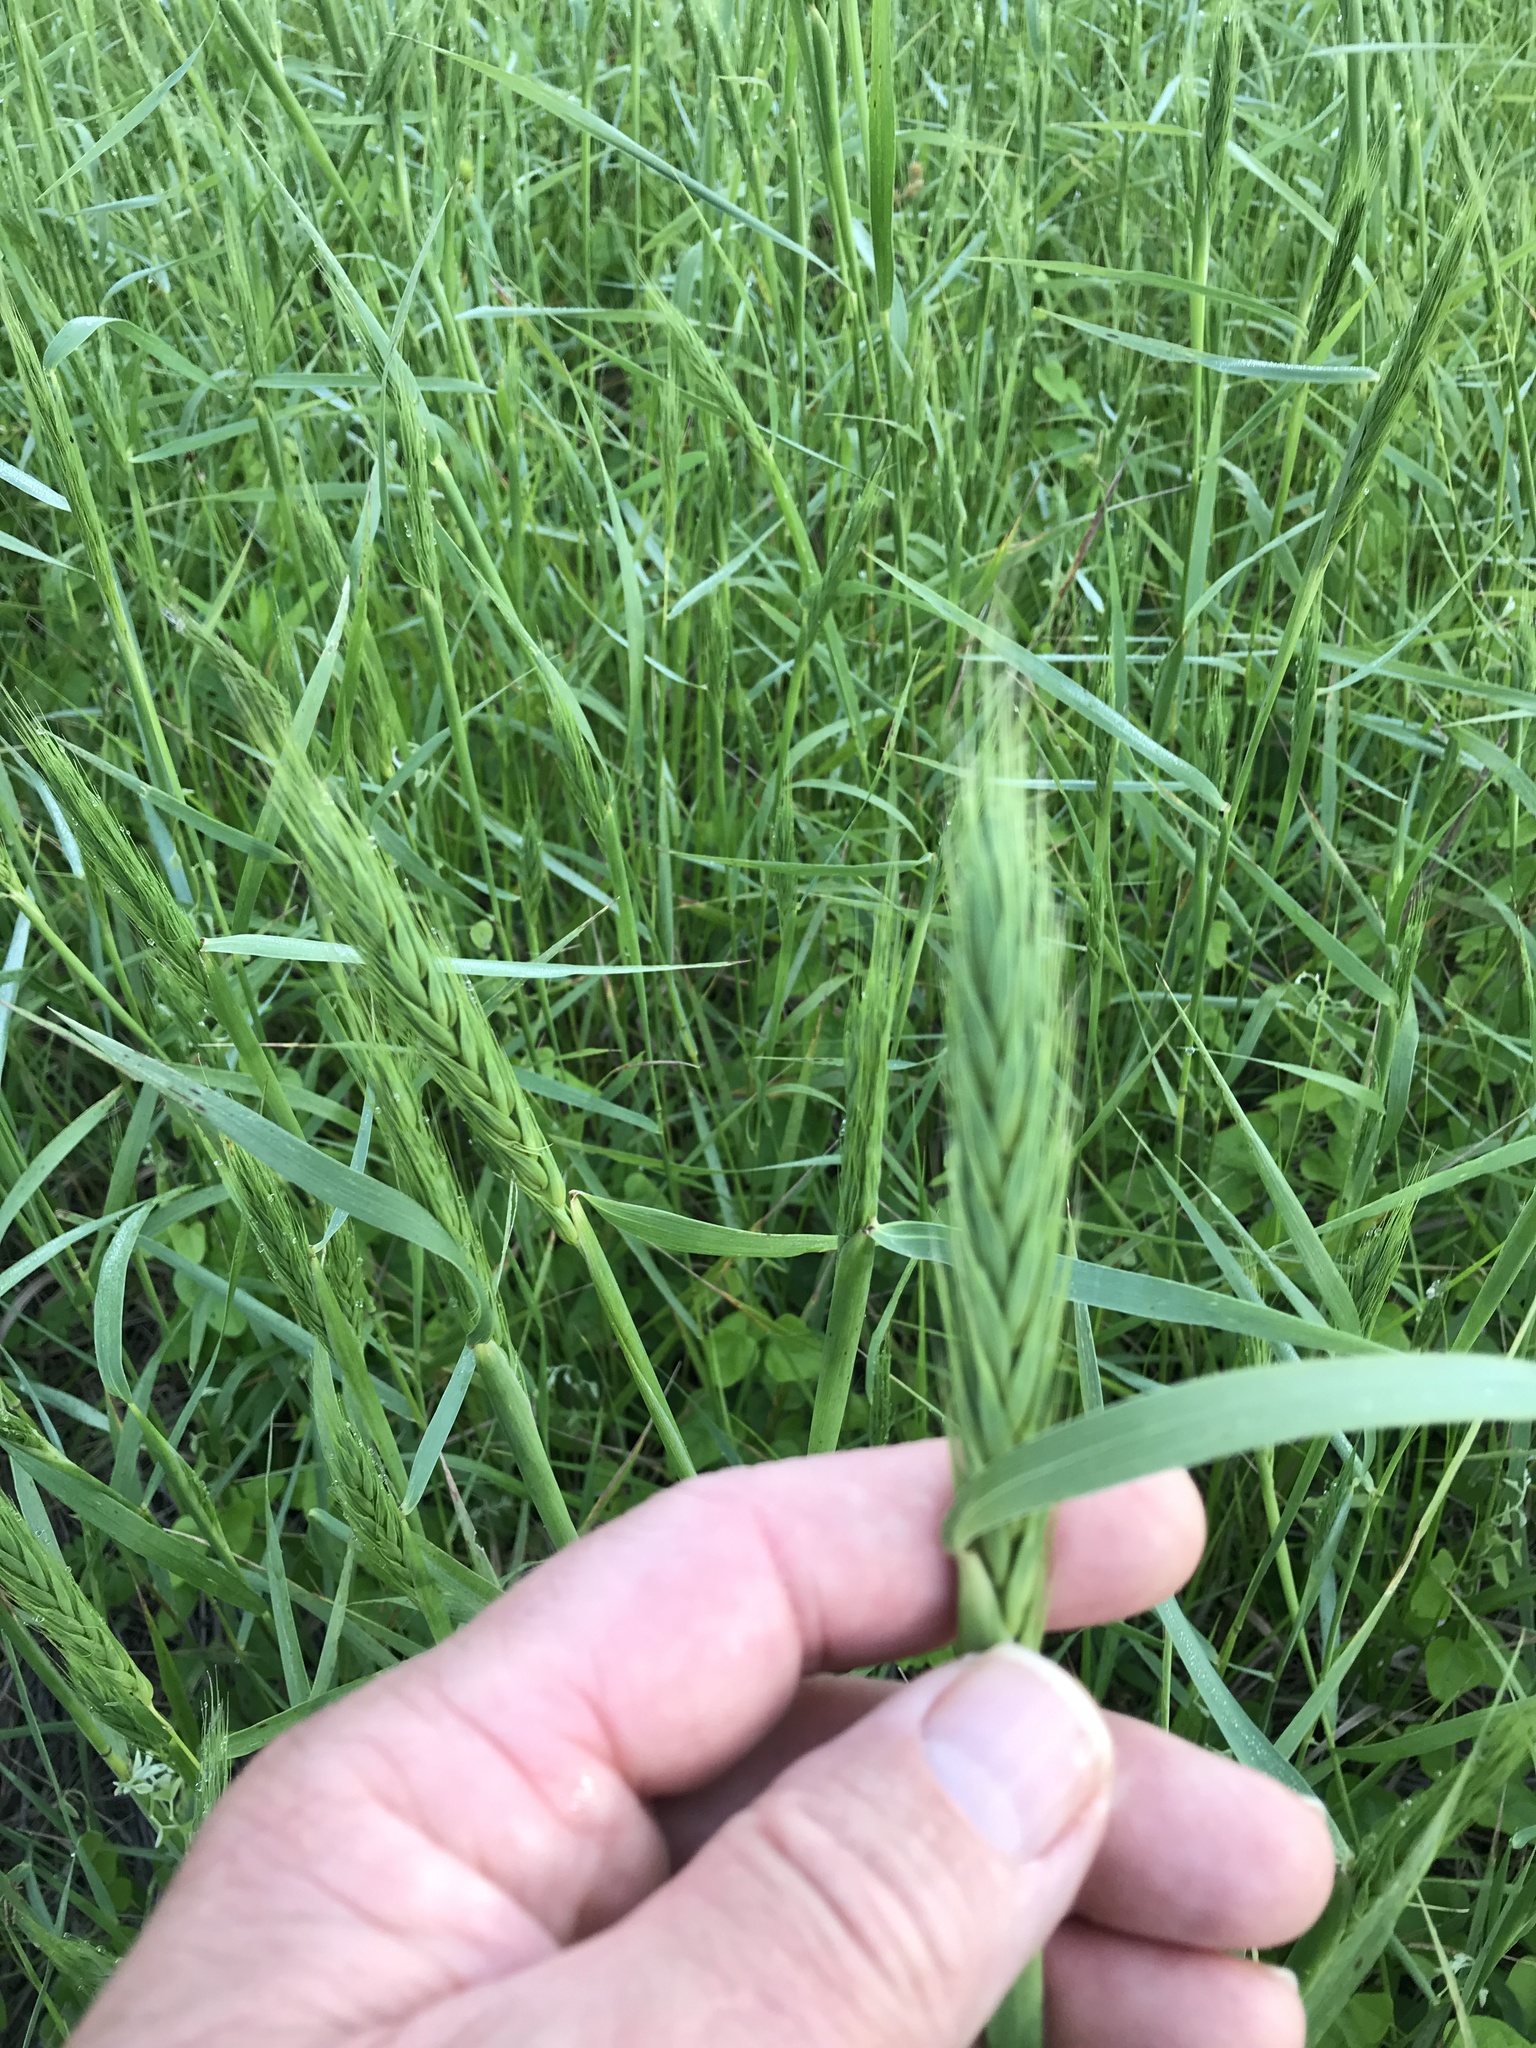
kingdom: Plantae
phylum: Tracheophyta
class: Liliopsida
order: Poales
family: Poaceae
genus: Elymus
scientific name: Elymus virginicus
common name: Common eastern wildrye
